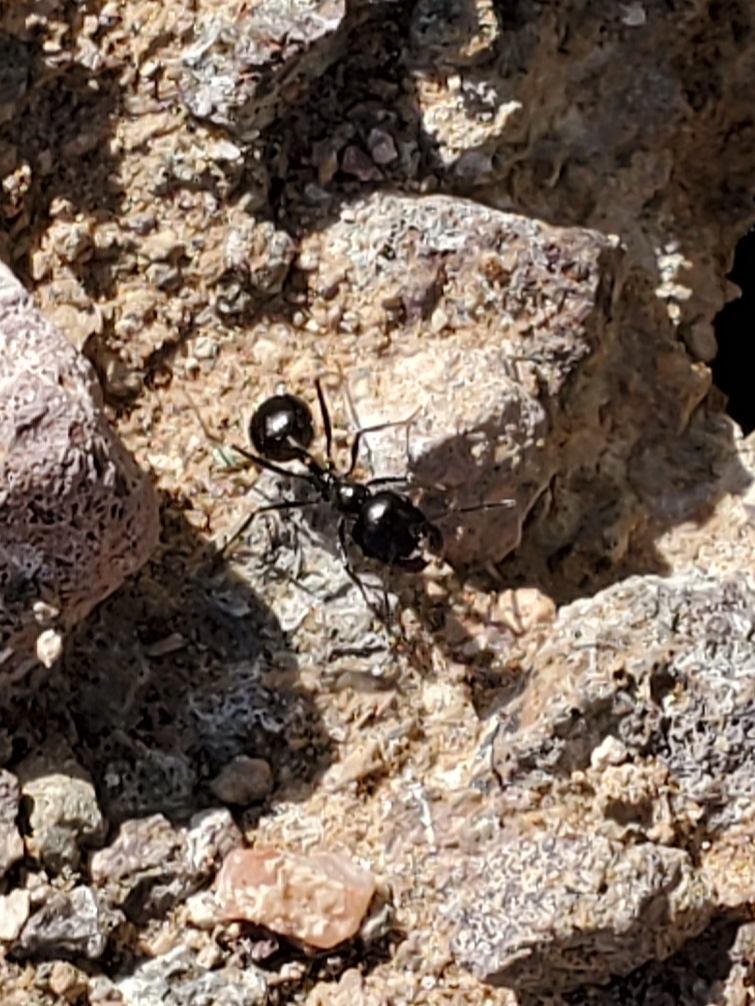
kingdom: Animalia
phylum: Arthropoda
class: Insecta
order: Hymenoptera
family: Formicidae
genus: Messor
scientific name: Messor pergandei
